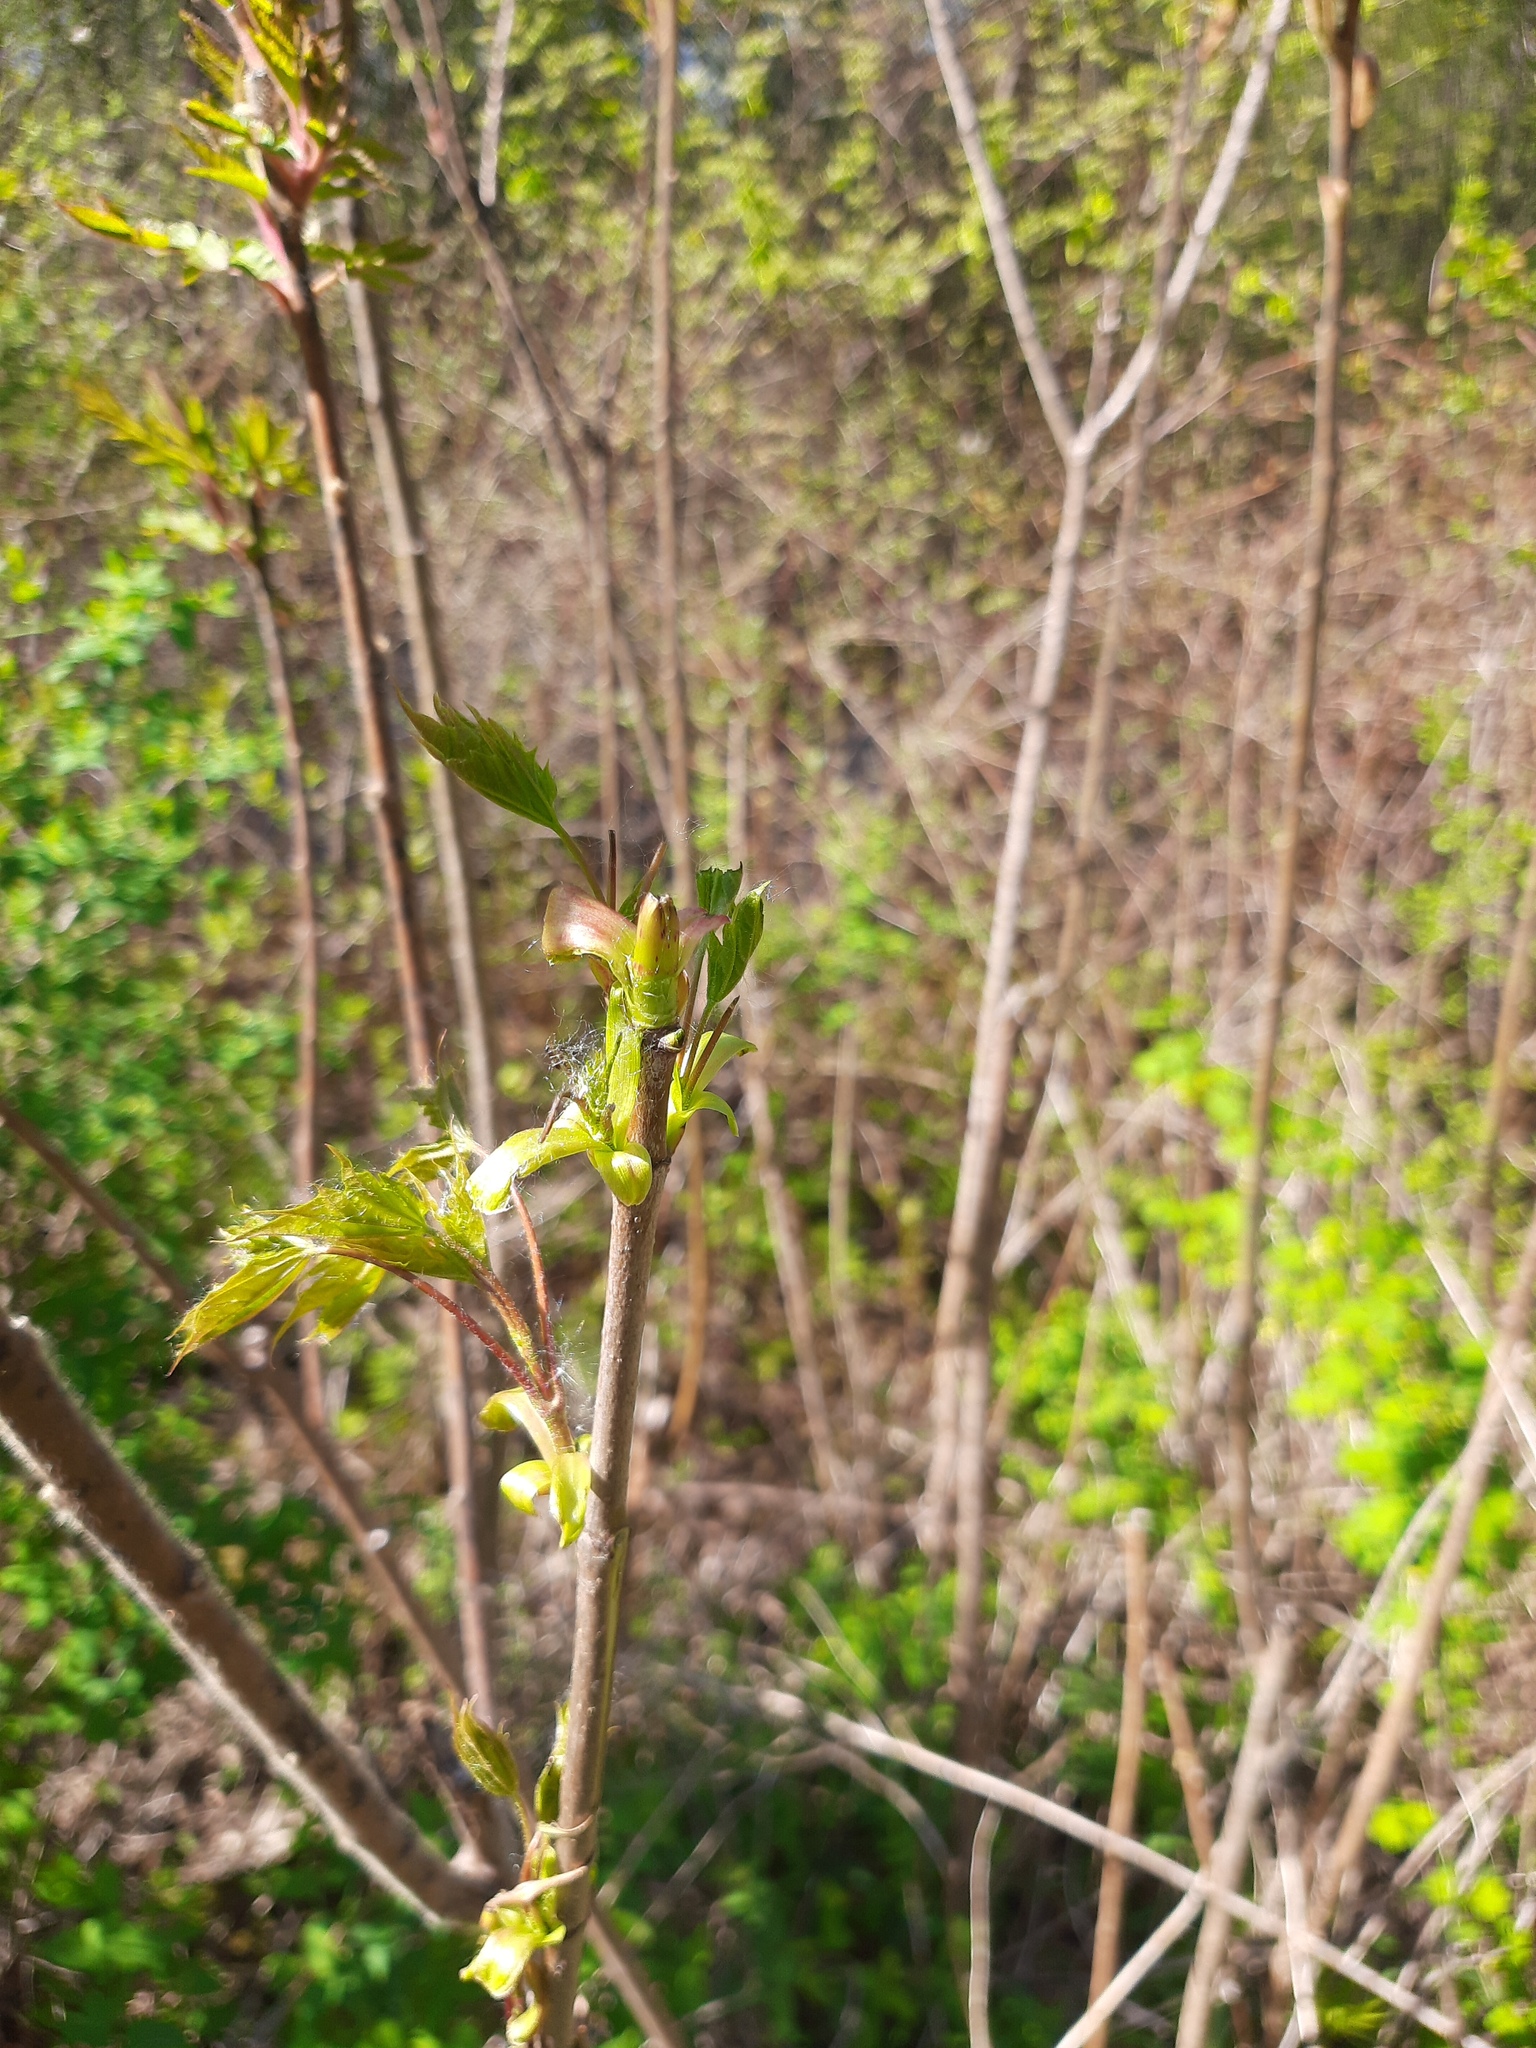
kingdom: Plantae
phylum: Tracheophyta
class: Magnoliopsida
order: Sapindales
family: Sapindaceae
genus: Acer
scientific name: Acer negundo
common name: Ashleaf maple
